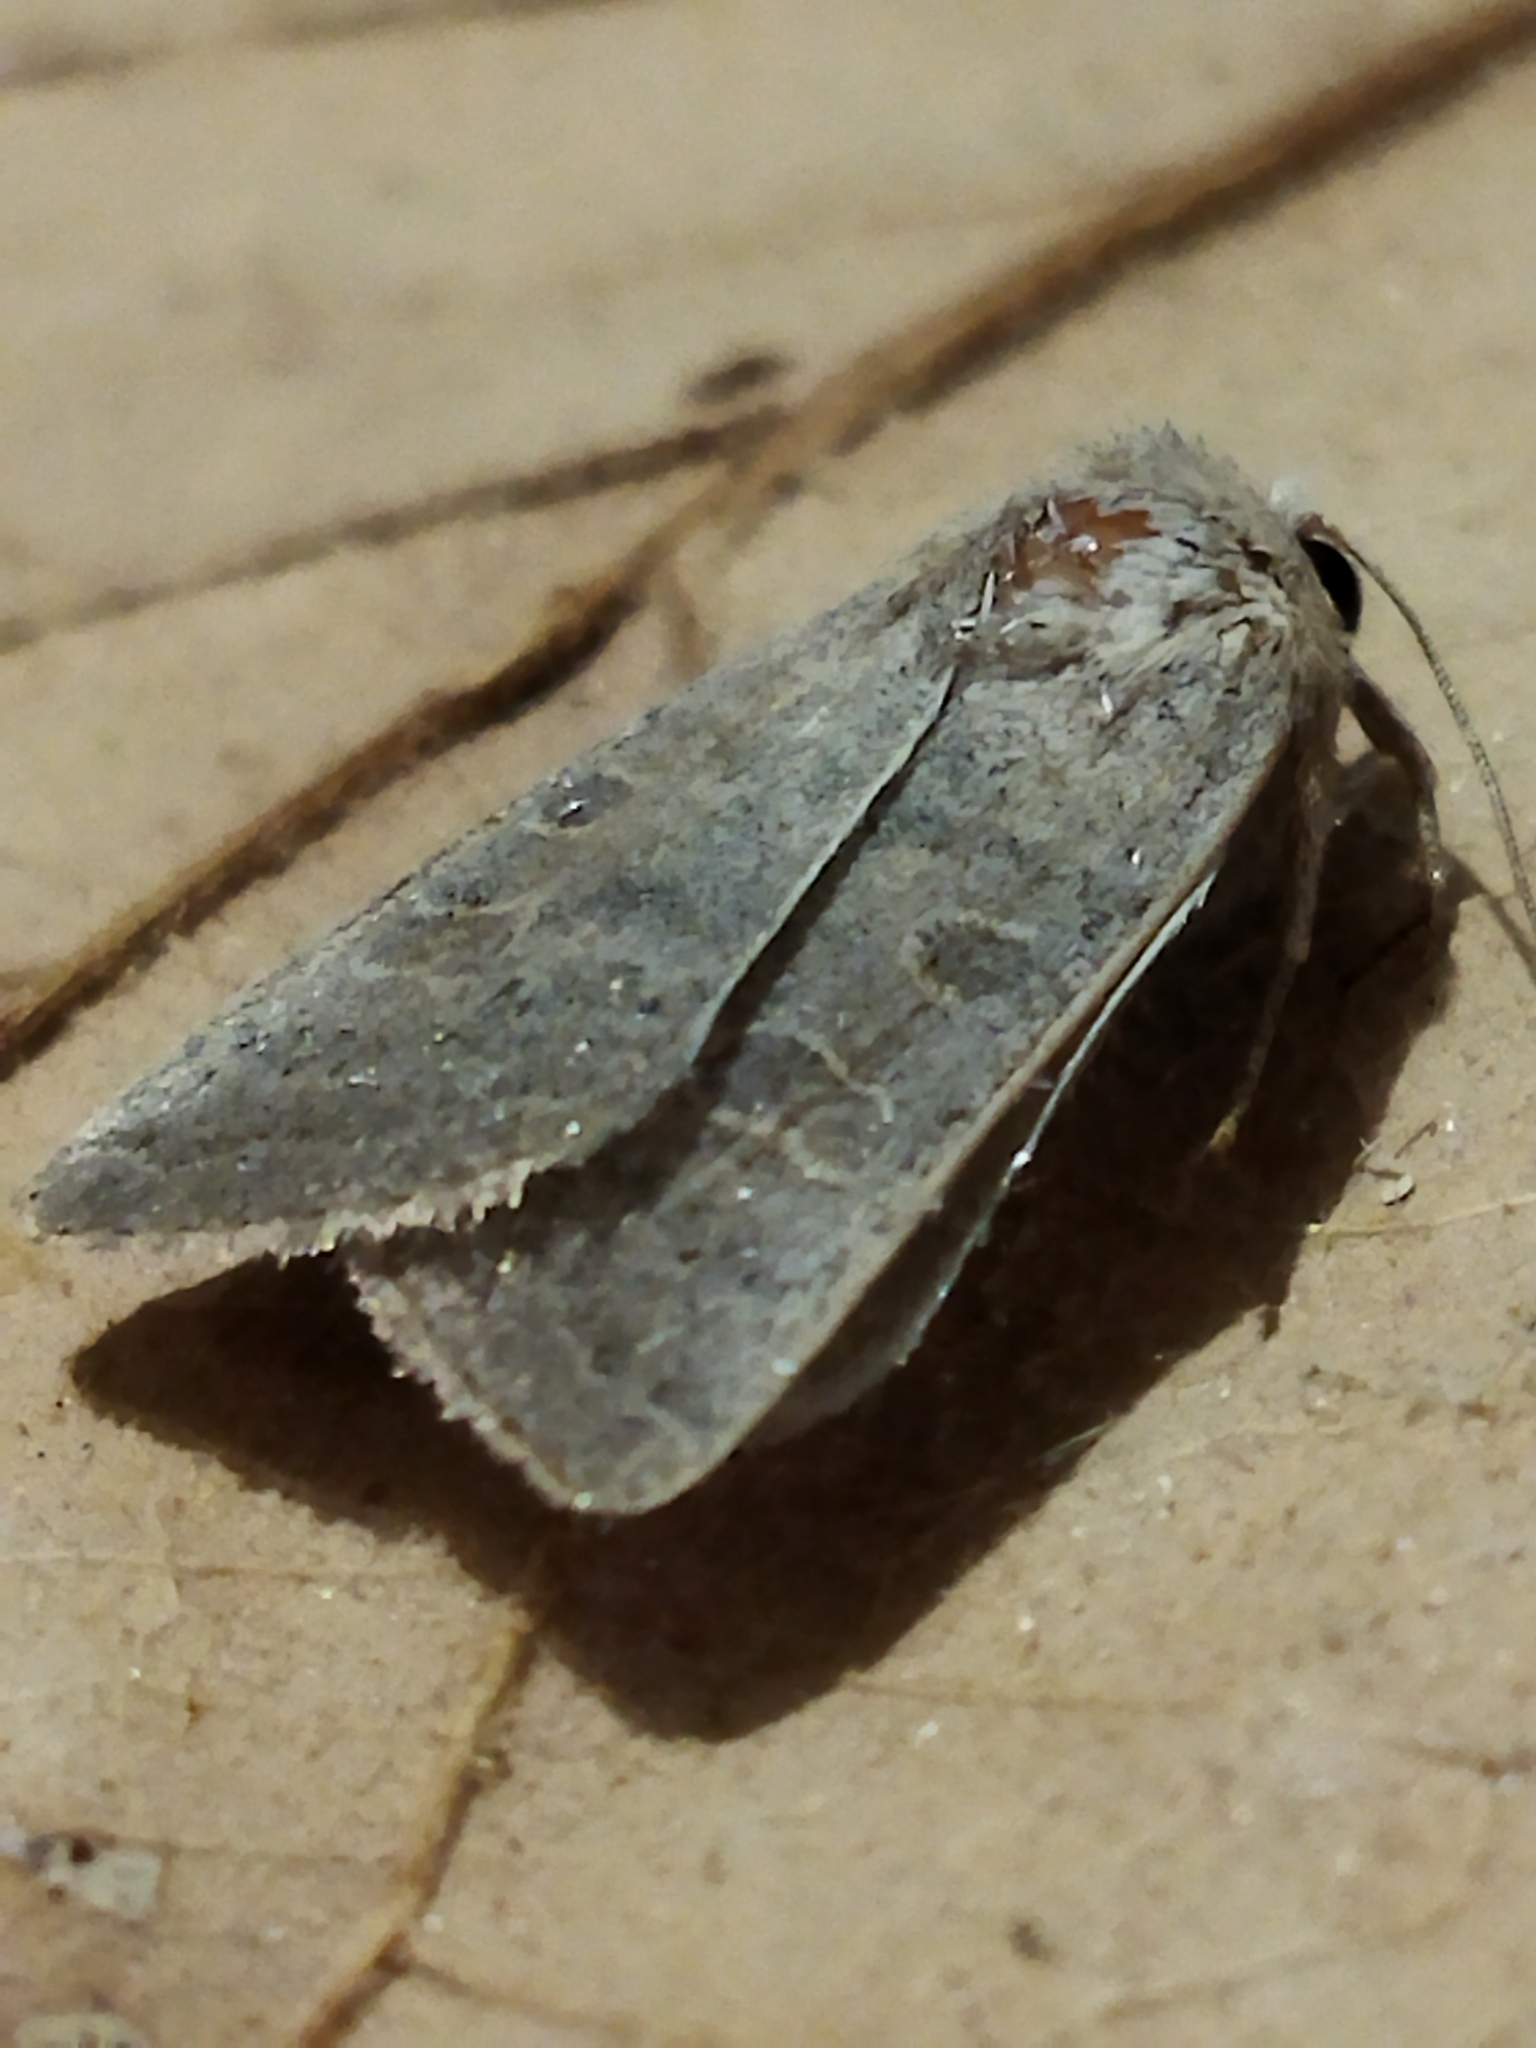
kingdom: Animalia
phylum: Arthropoda
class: Insecta
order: Lepidoptera
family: Noctuidae
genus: Hoplodrina
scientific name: Hoplodrina ambigua
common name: Vine's rustic
